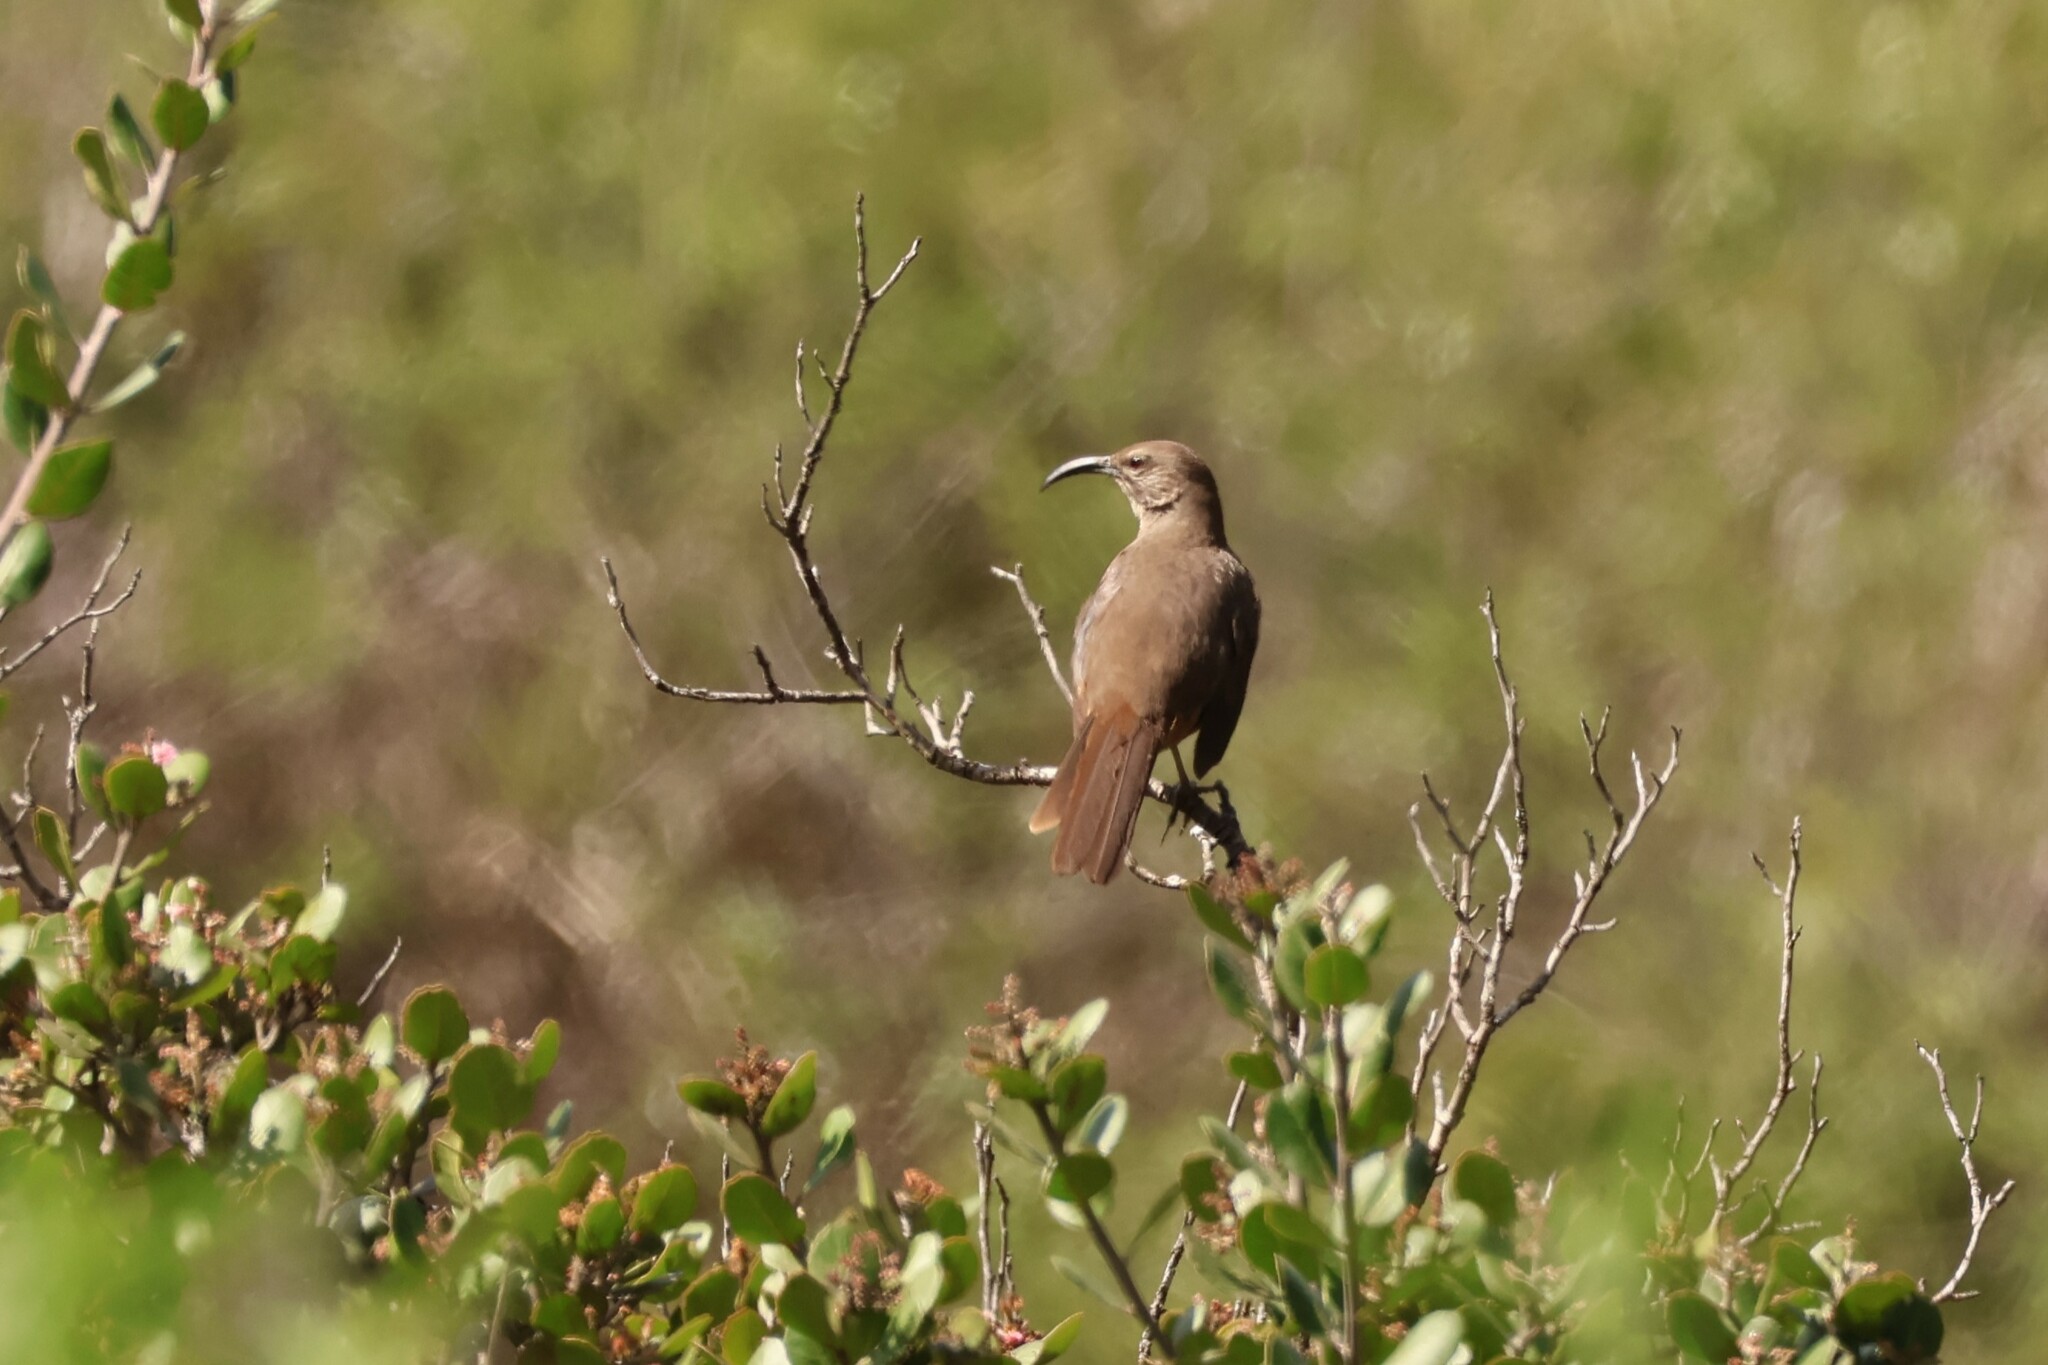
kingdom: Animalia
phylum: Chordata
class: Aves
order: Passeriformes
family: Mimidae
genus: Toxostoma
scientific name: Toxostoma redivivum
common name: California thrasher
